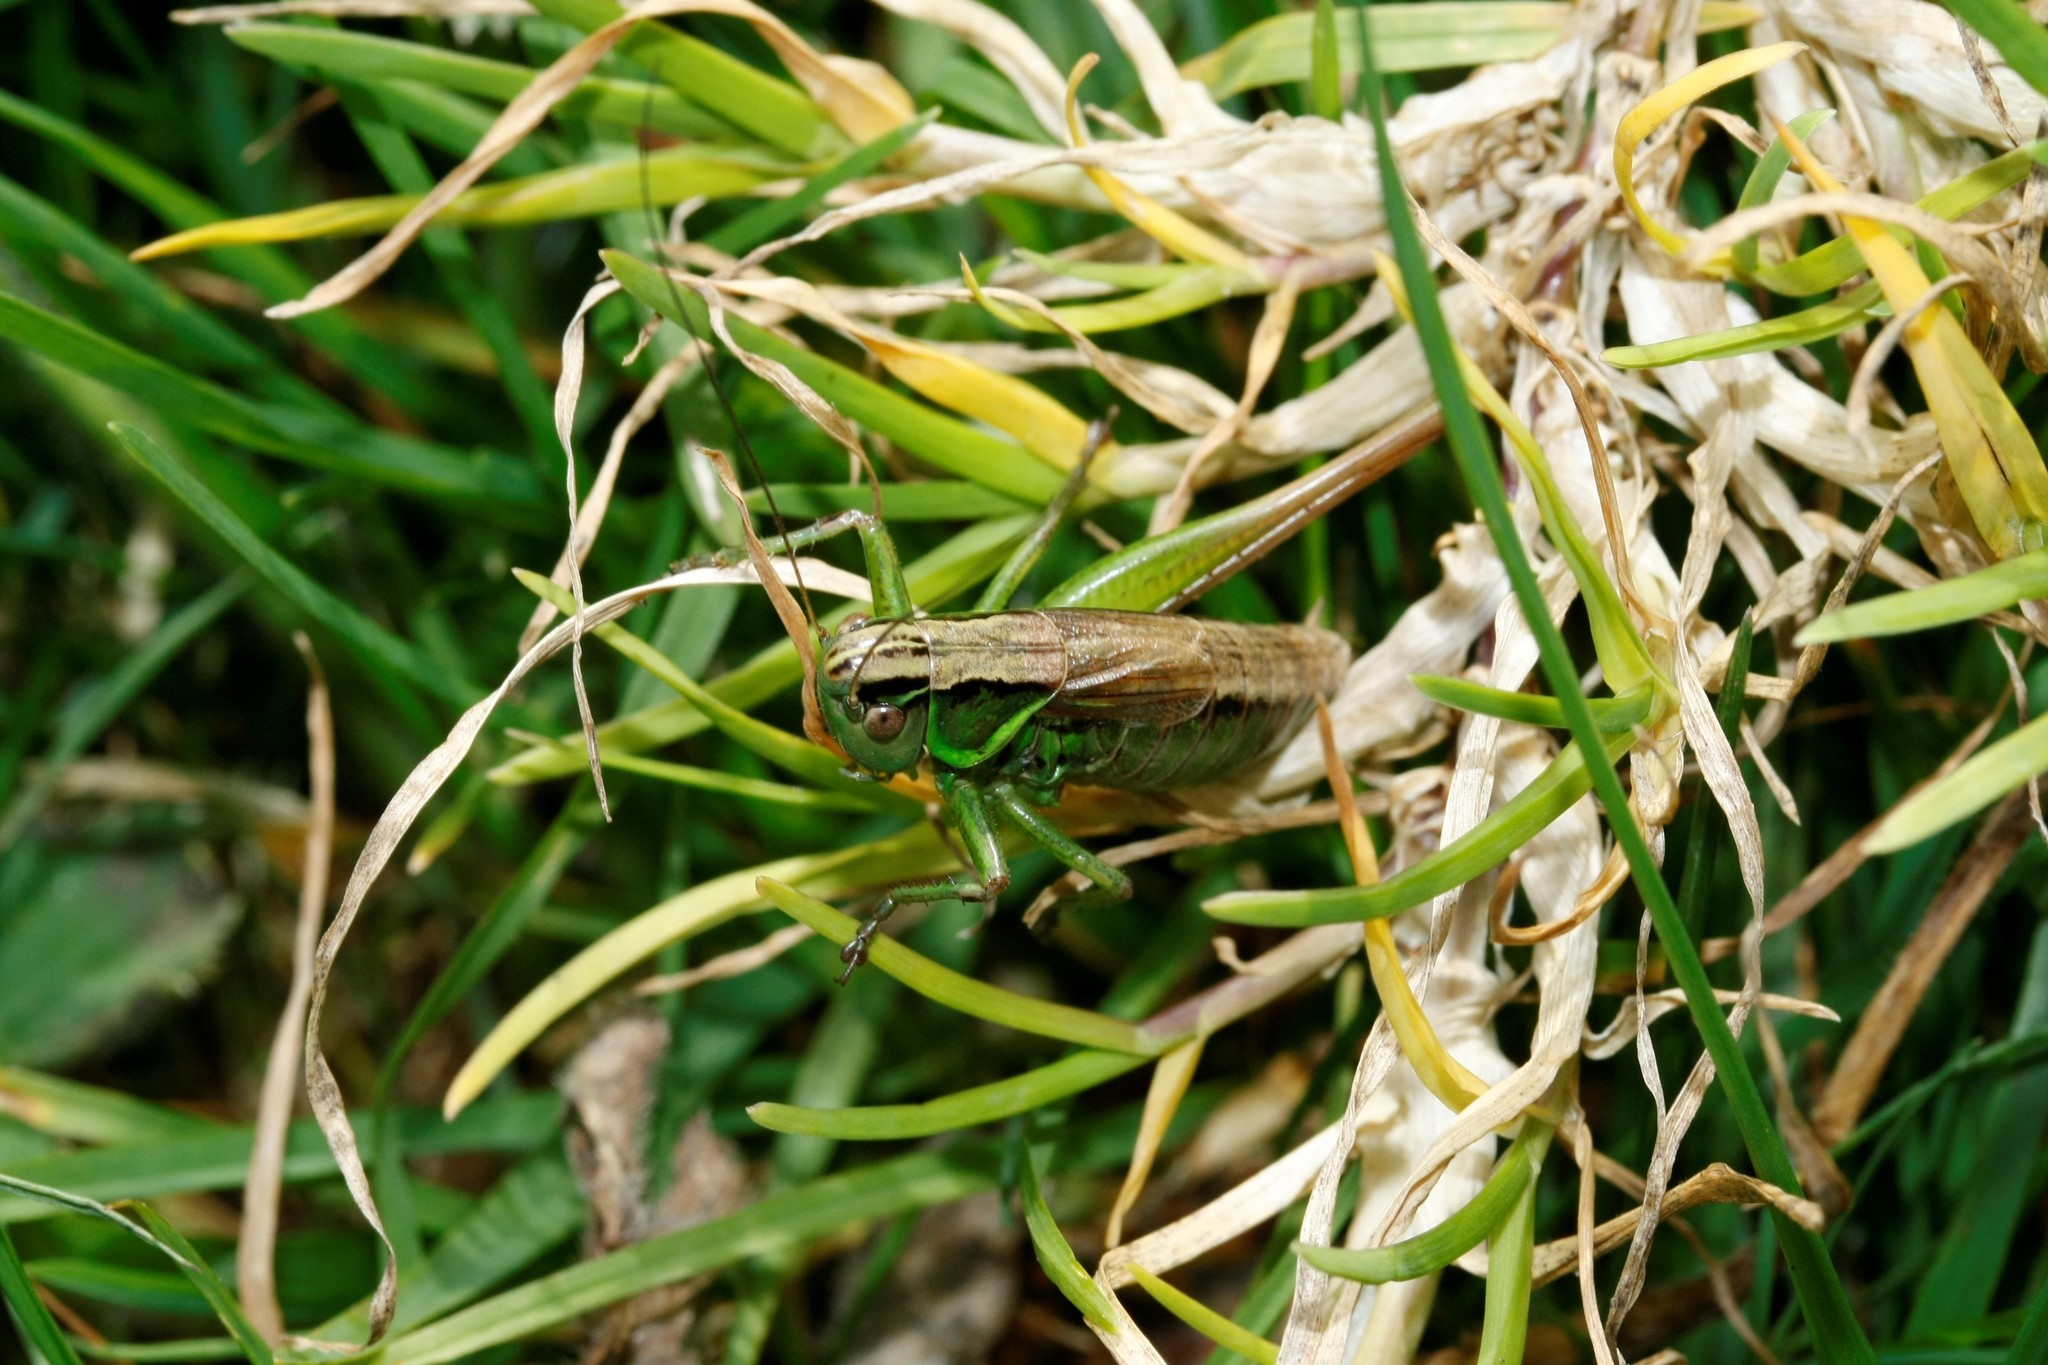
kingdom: Animalia
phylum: Arthropoda
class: Insecta
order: Orthoptera
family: Tettigoniidae
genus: Roeseliana
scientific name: Roeseliana roeselii
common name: Roesel's bush cricket
